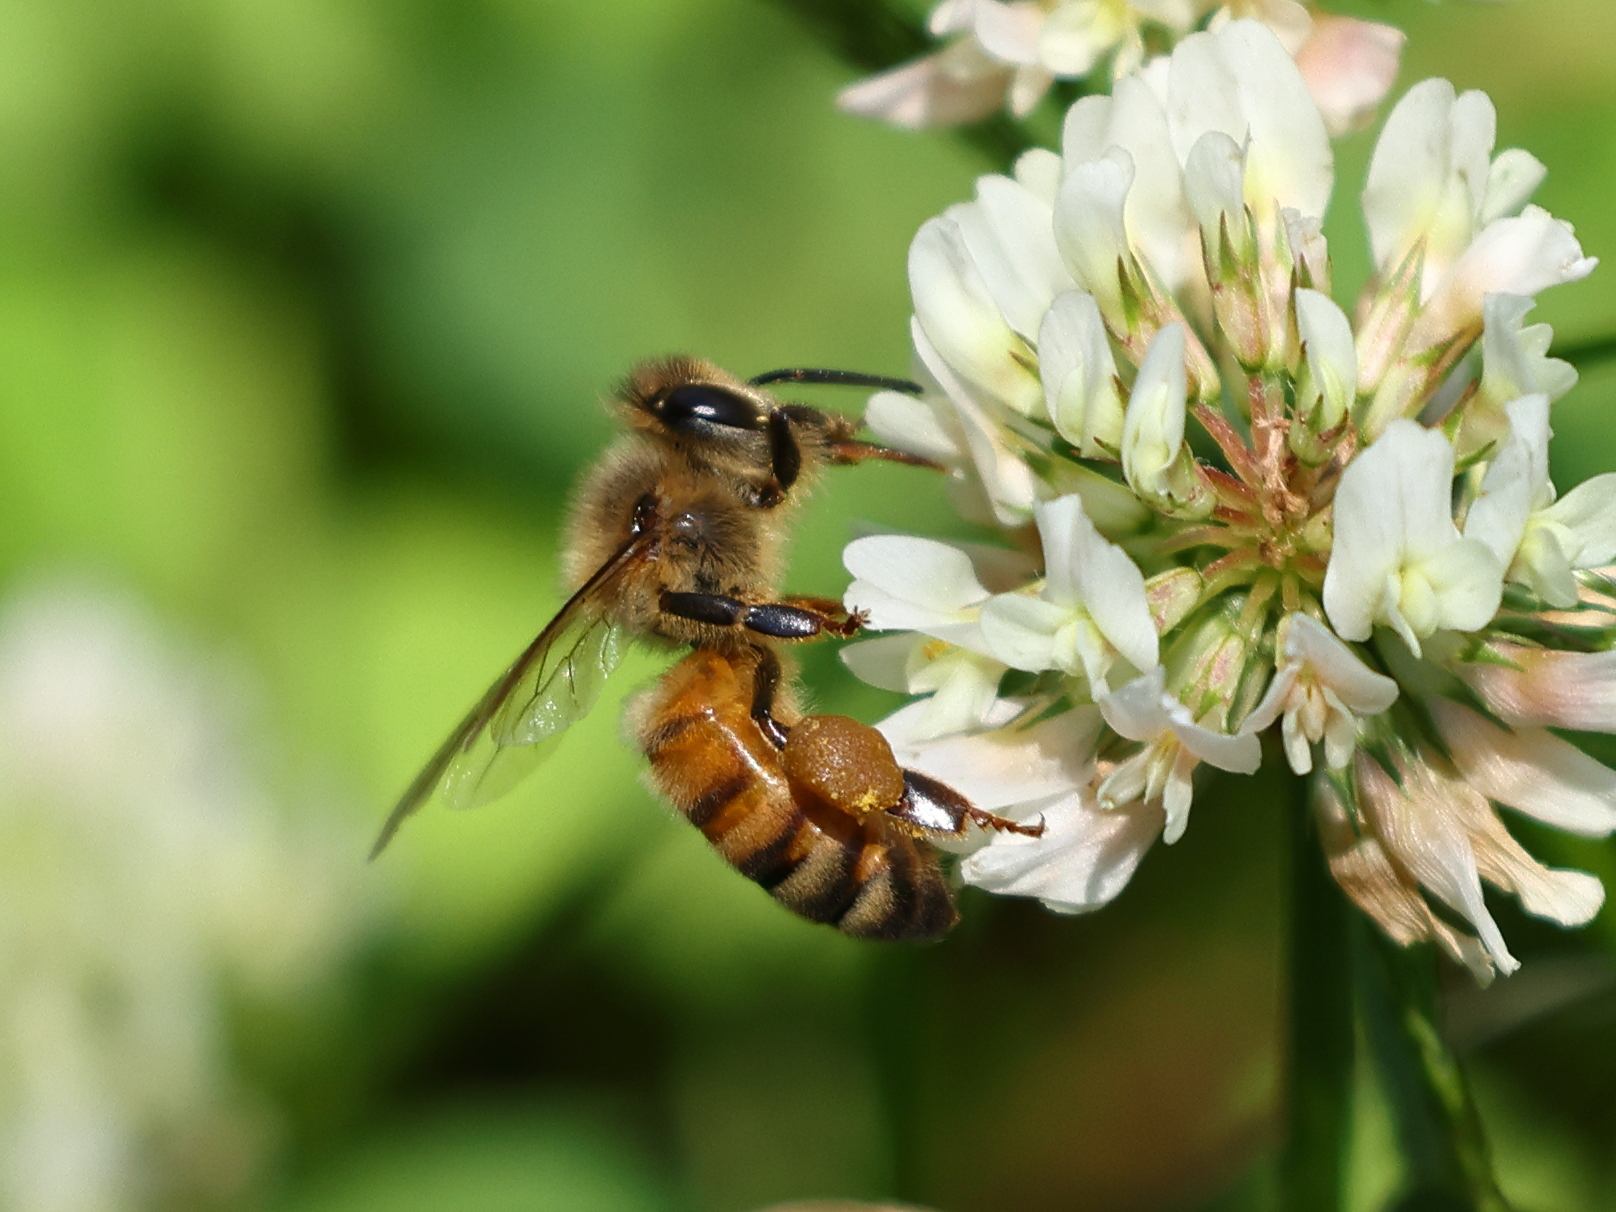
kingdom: Animalia
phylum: Arthropoda
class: Insecta
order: Hymenoptera
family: Apidae
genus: Apis
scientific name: Apis mellifera
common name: Honey bee
